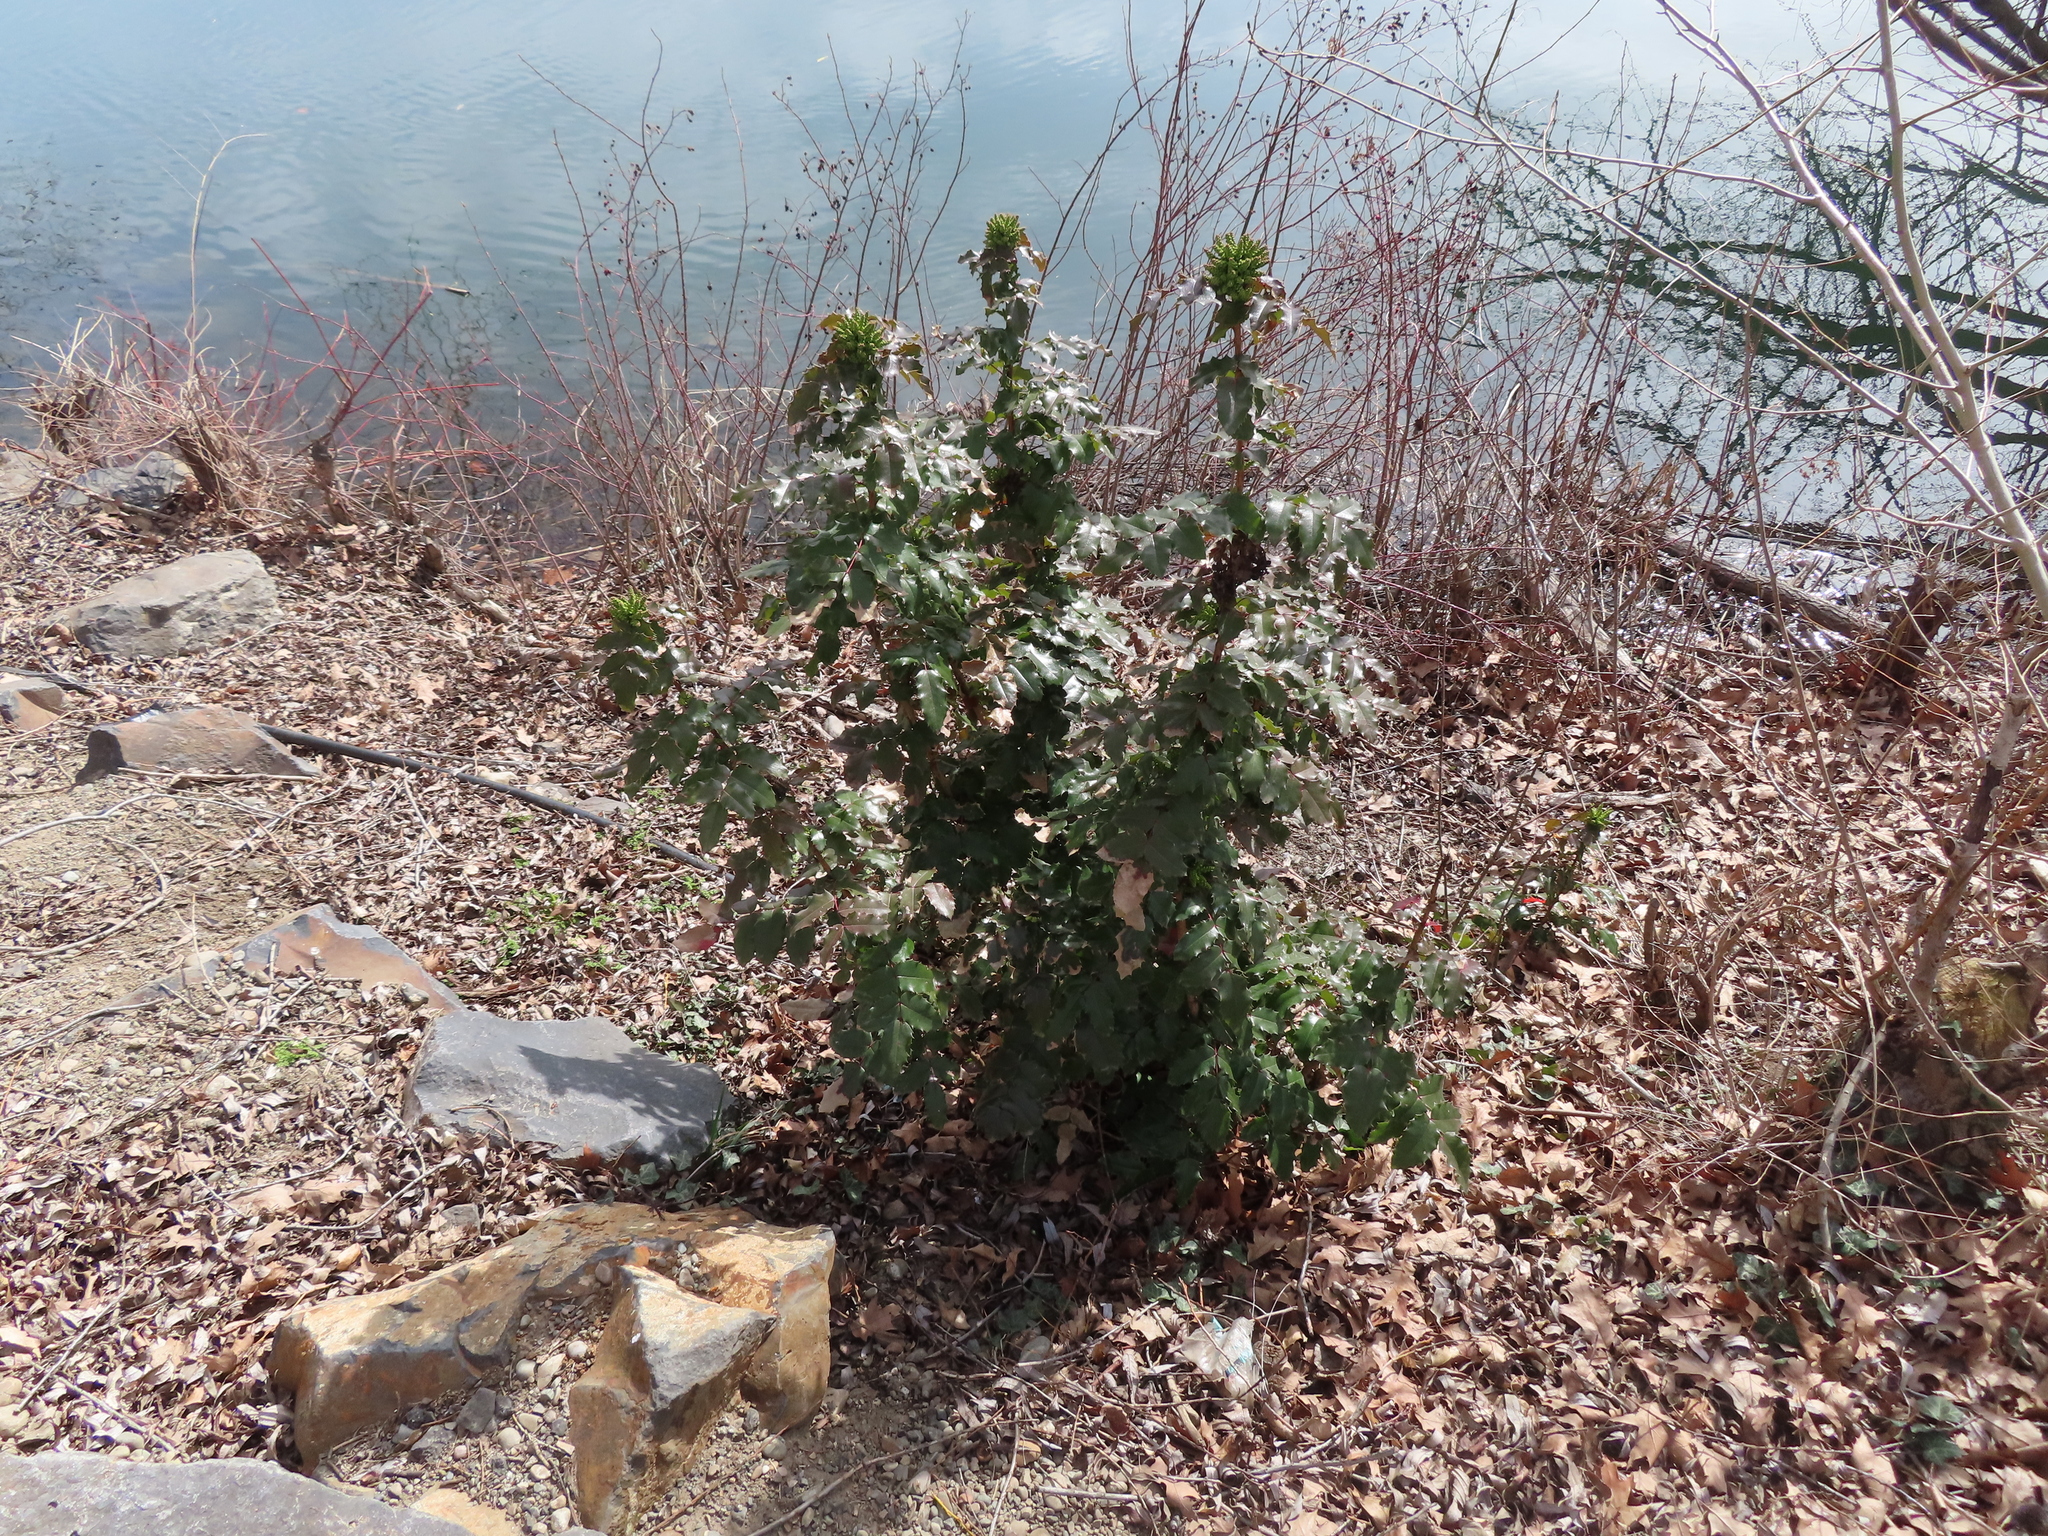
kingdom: Plantae
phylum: Tracheophyta
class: Magnoliopsida
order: Ranunculales
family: Berberidaceae
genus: Mahonia
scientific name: Mahonia aquifolium
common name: Oregon-grape
